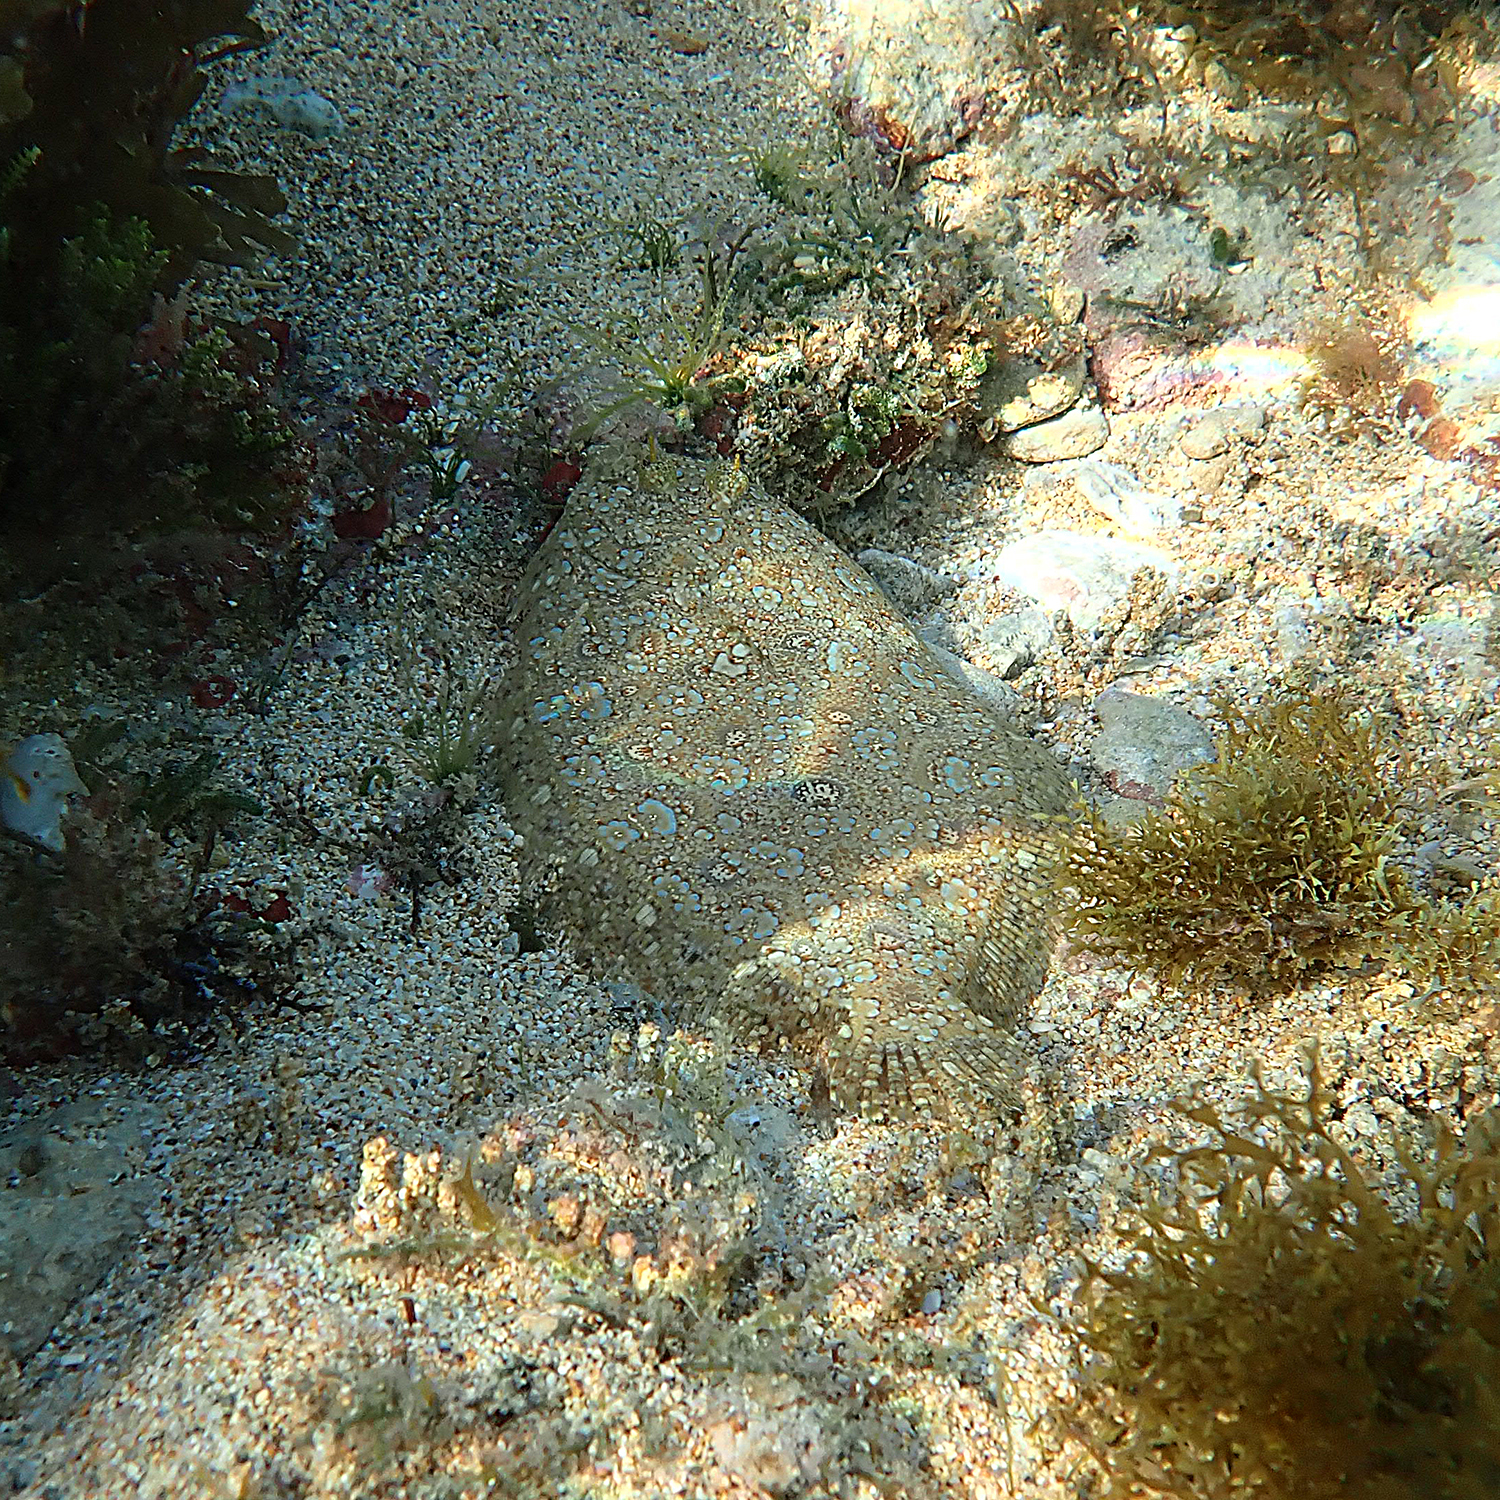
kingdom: Animalia
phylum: Chordata
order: Pleuronectiformes
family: Bothidae
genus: Bothus
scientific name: Bothus pantherinus
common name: Leopard flounder
